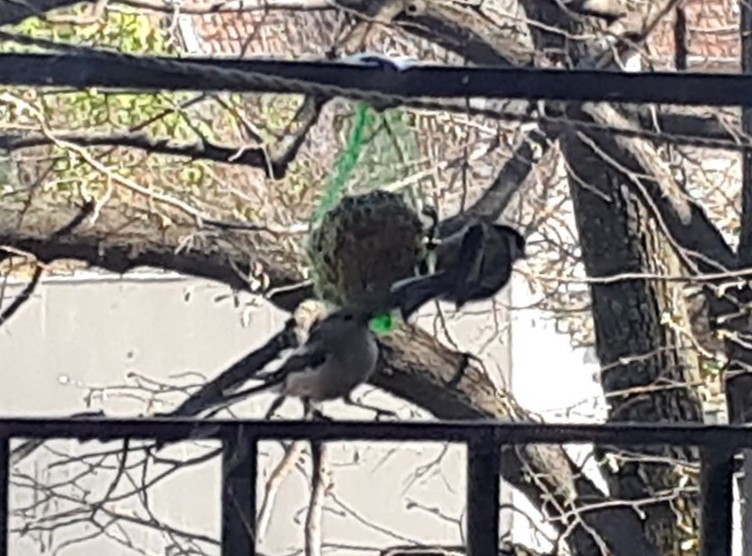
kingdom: Animalia
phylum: Chordata
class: Aves
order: Passeriformes
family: Aegithalidae
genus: Aegithalos
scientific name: Aegithalos caudatus
